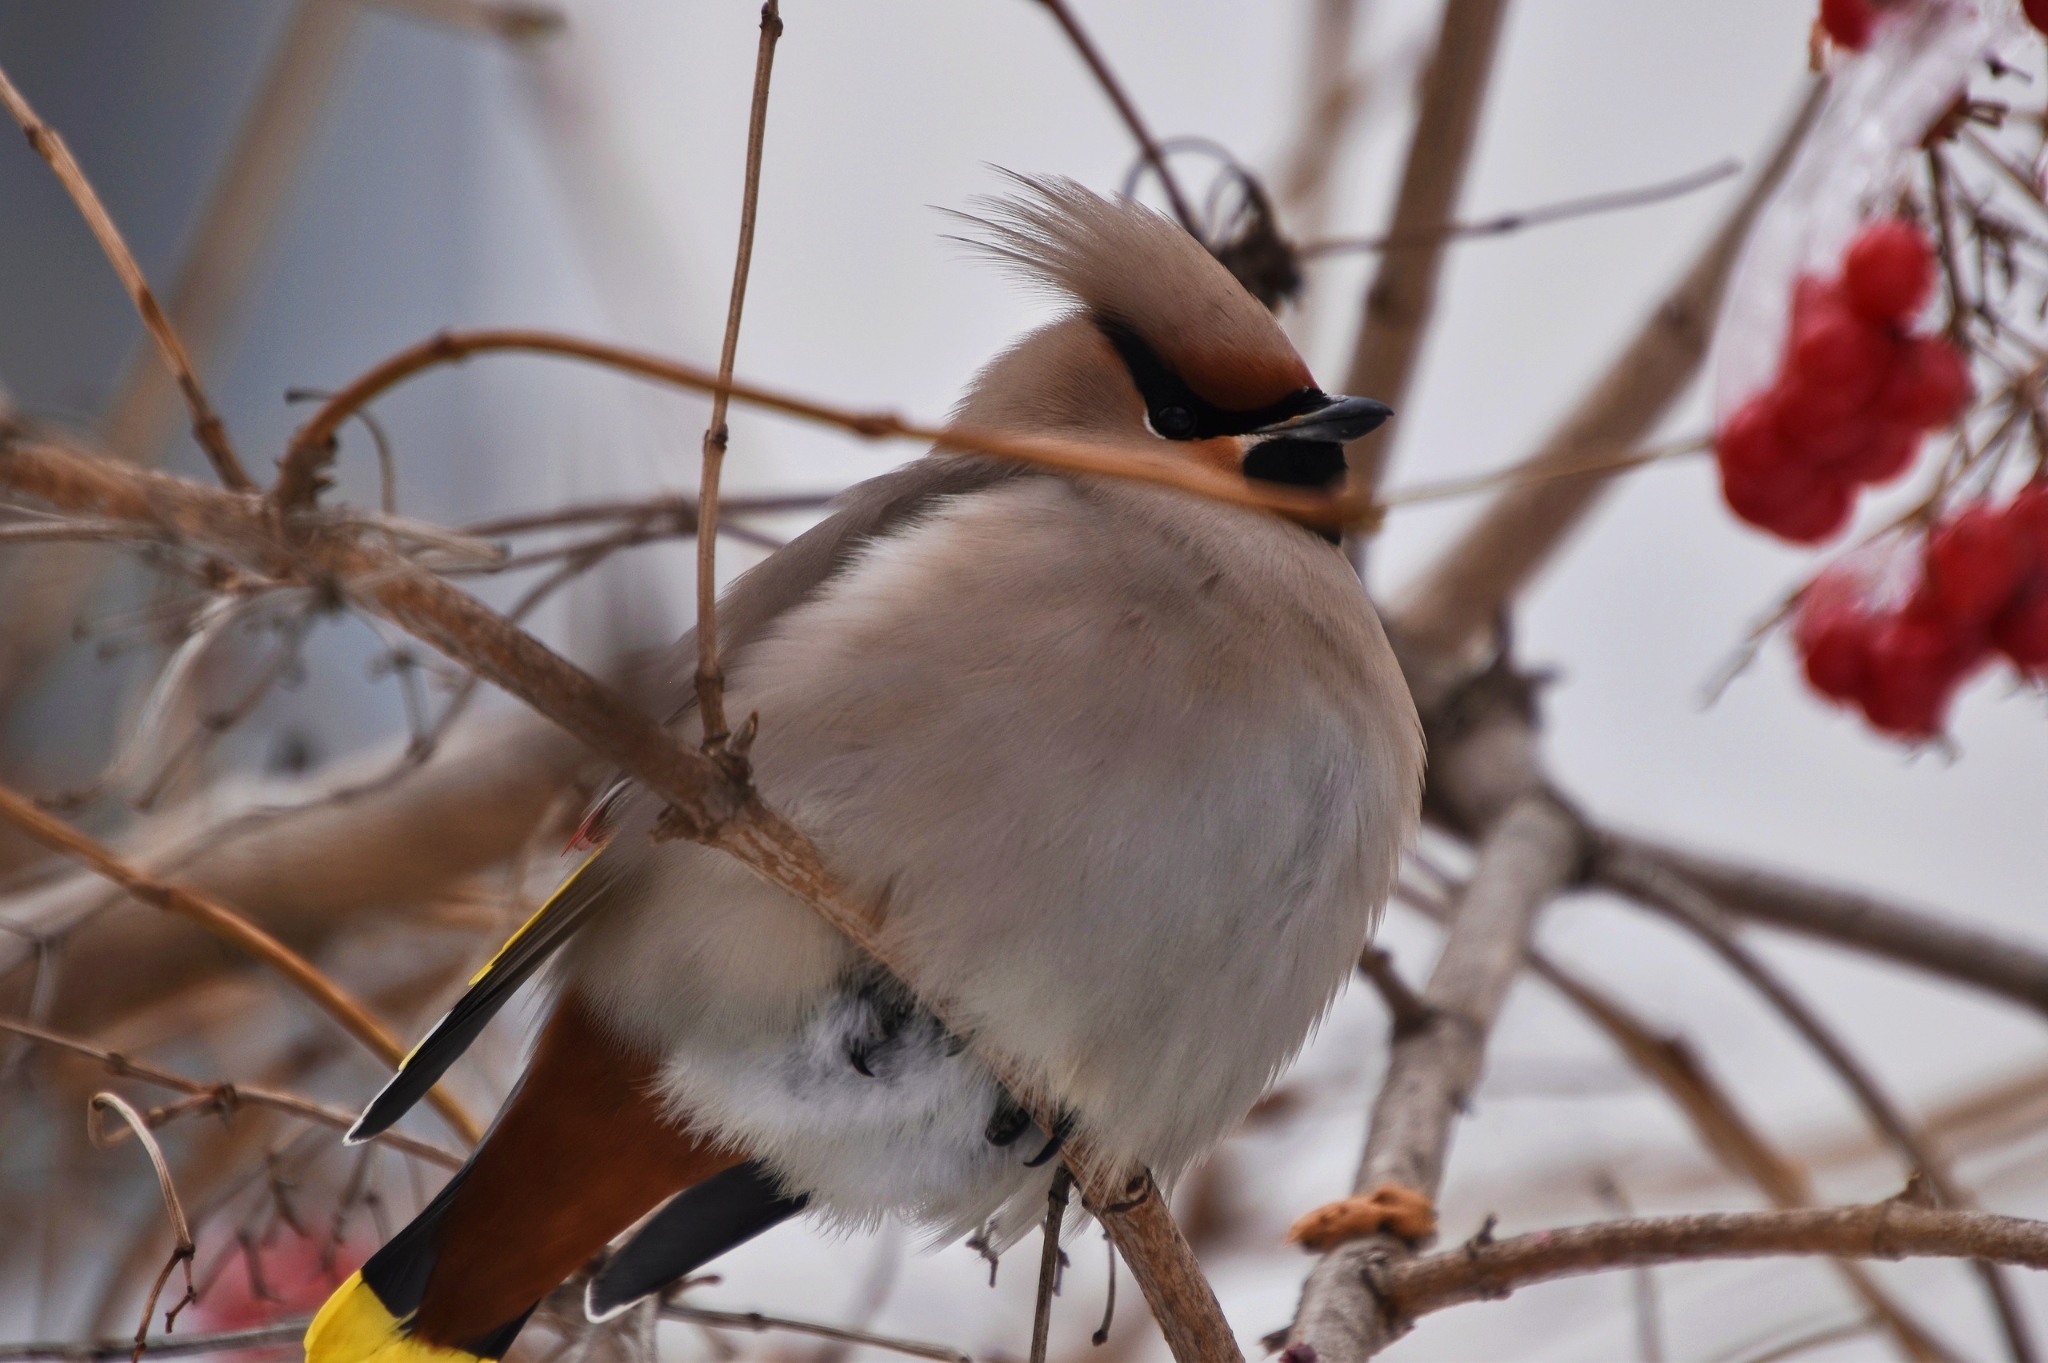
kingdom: Animalia
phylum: Chordata
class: Aves
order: Passeriformes
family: Bombycillidae
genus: Bombycilla
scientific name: Bombycilla garrulus
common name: Bohemian waxwing
